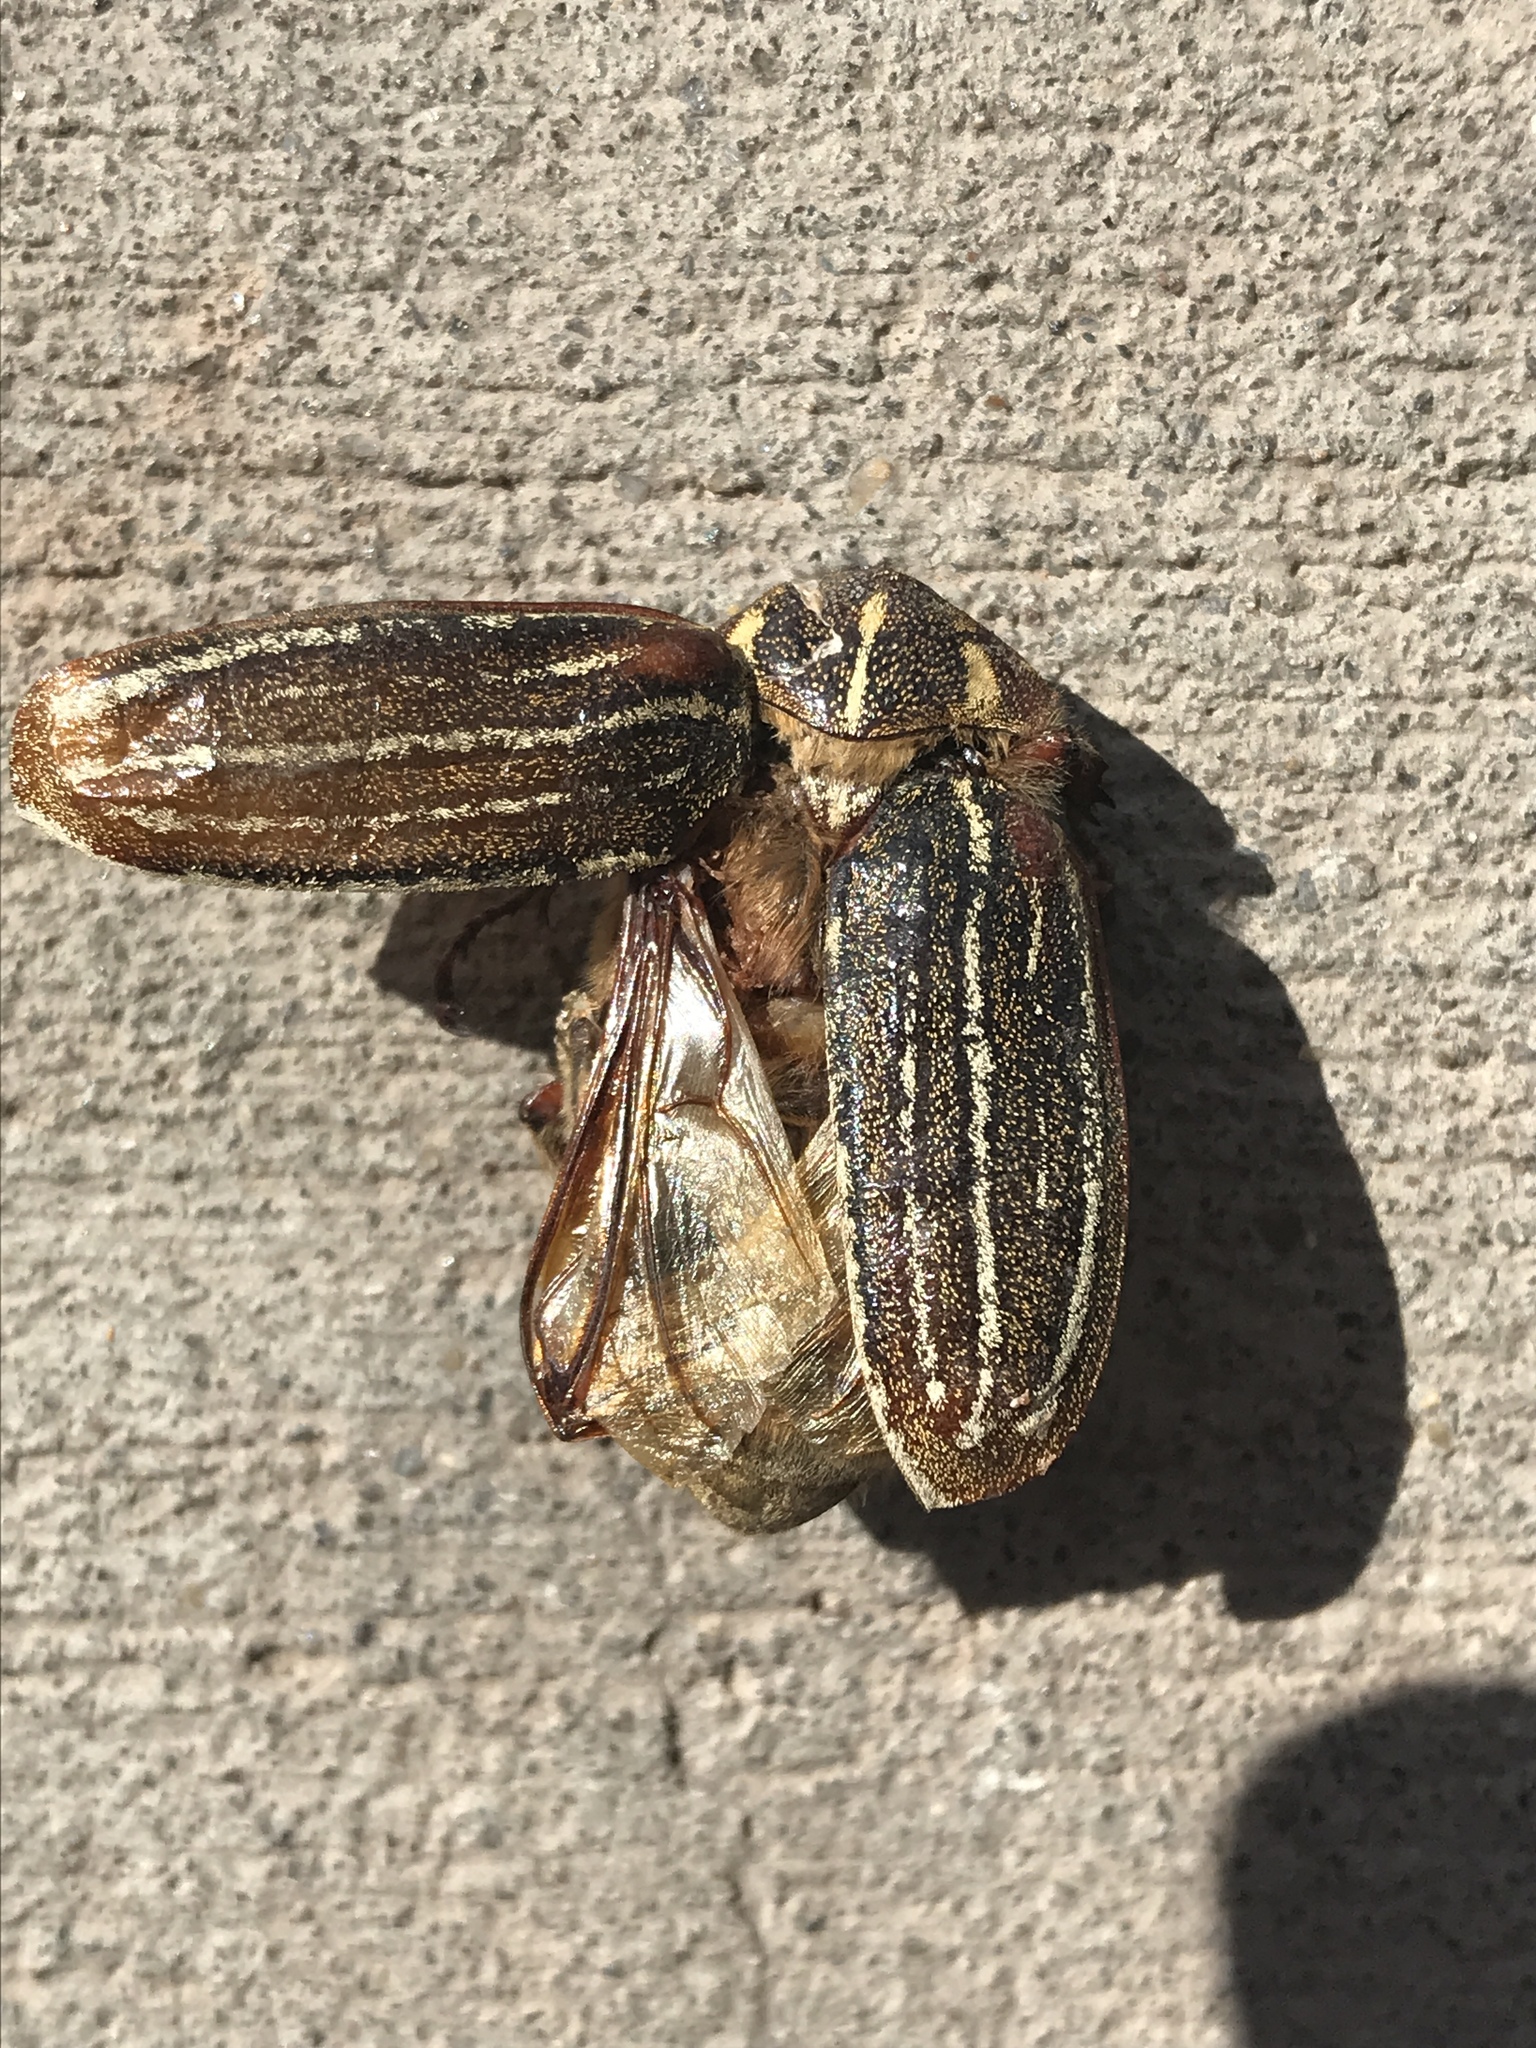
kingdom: Animalia
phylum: Arthropoda
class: Insecta
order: Coleoptera
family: Scarabaeidae
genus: Polyphylla
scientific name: Polyphylla decemlineata
